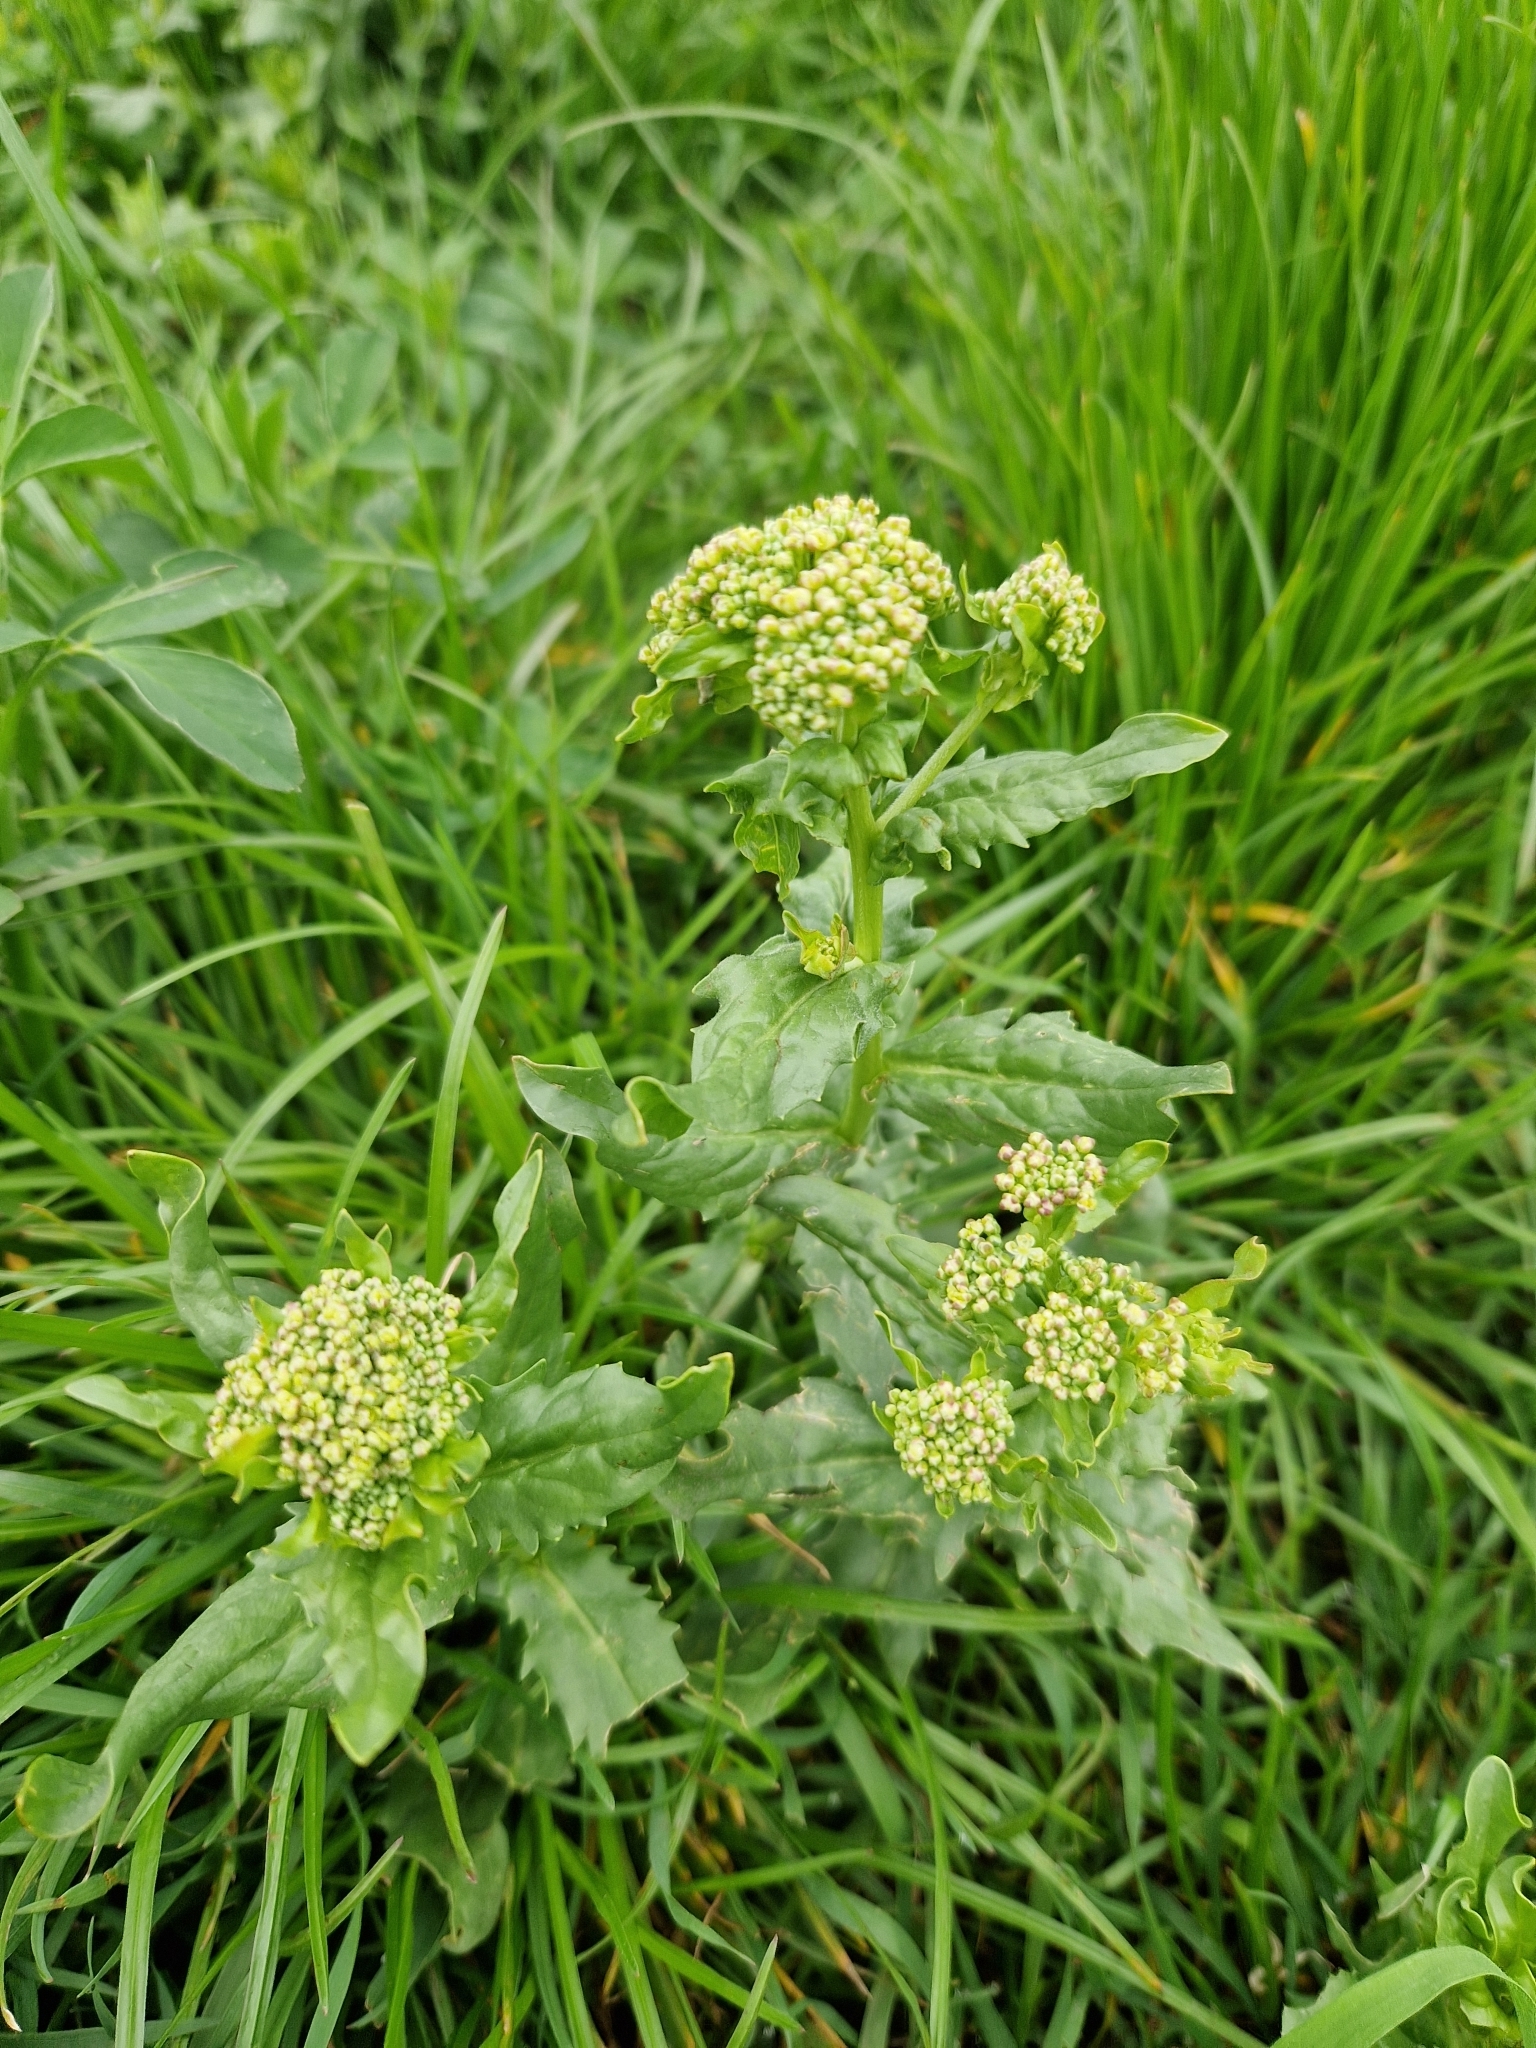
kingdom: Plantae
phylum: Tracheophyta
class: Magnoliopsida
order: Brassicales
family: Brassicaceae
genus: Lepidium
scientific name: Lepidium draba
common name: Hoary cress
